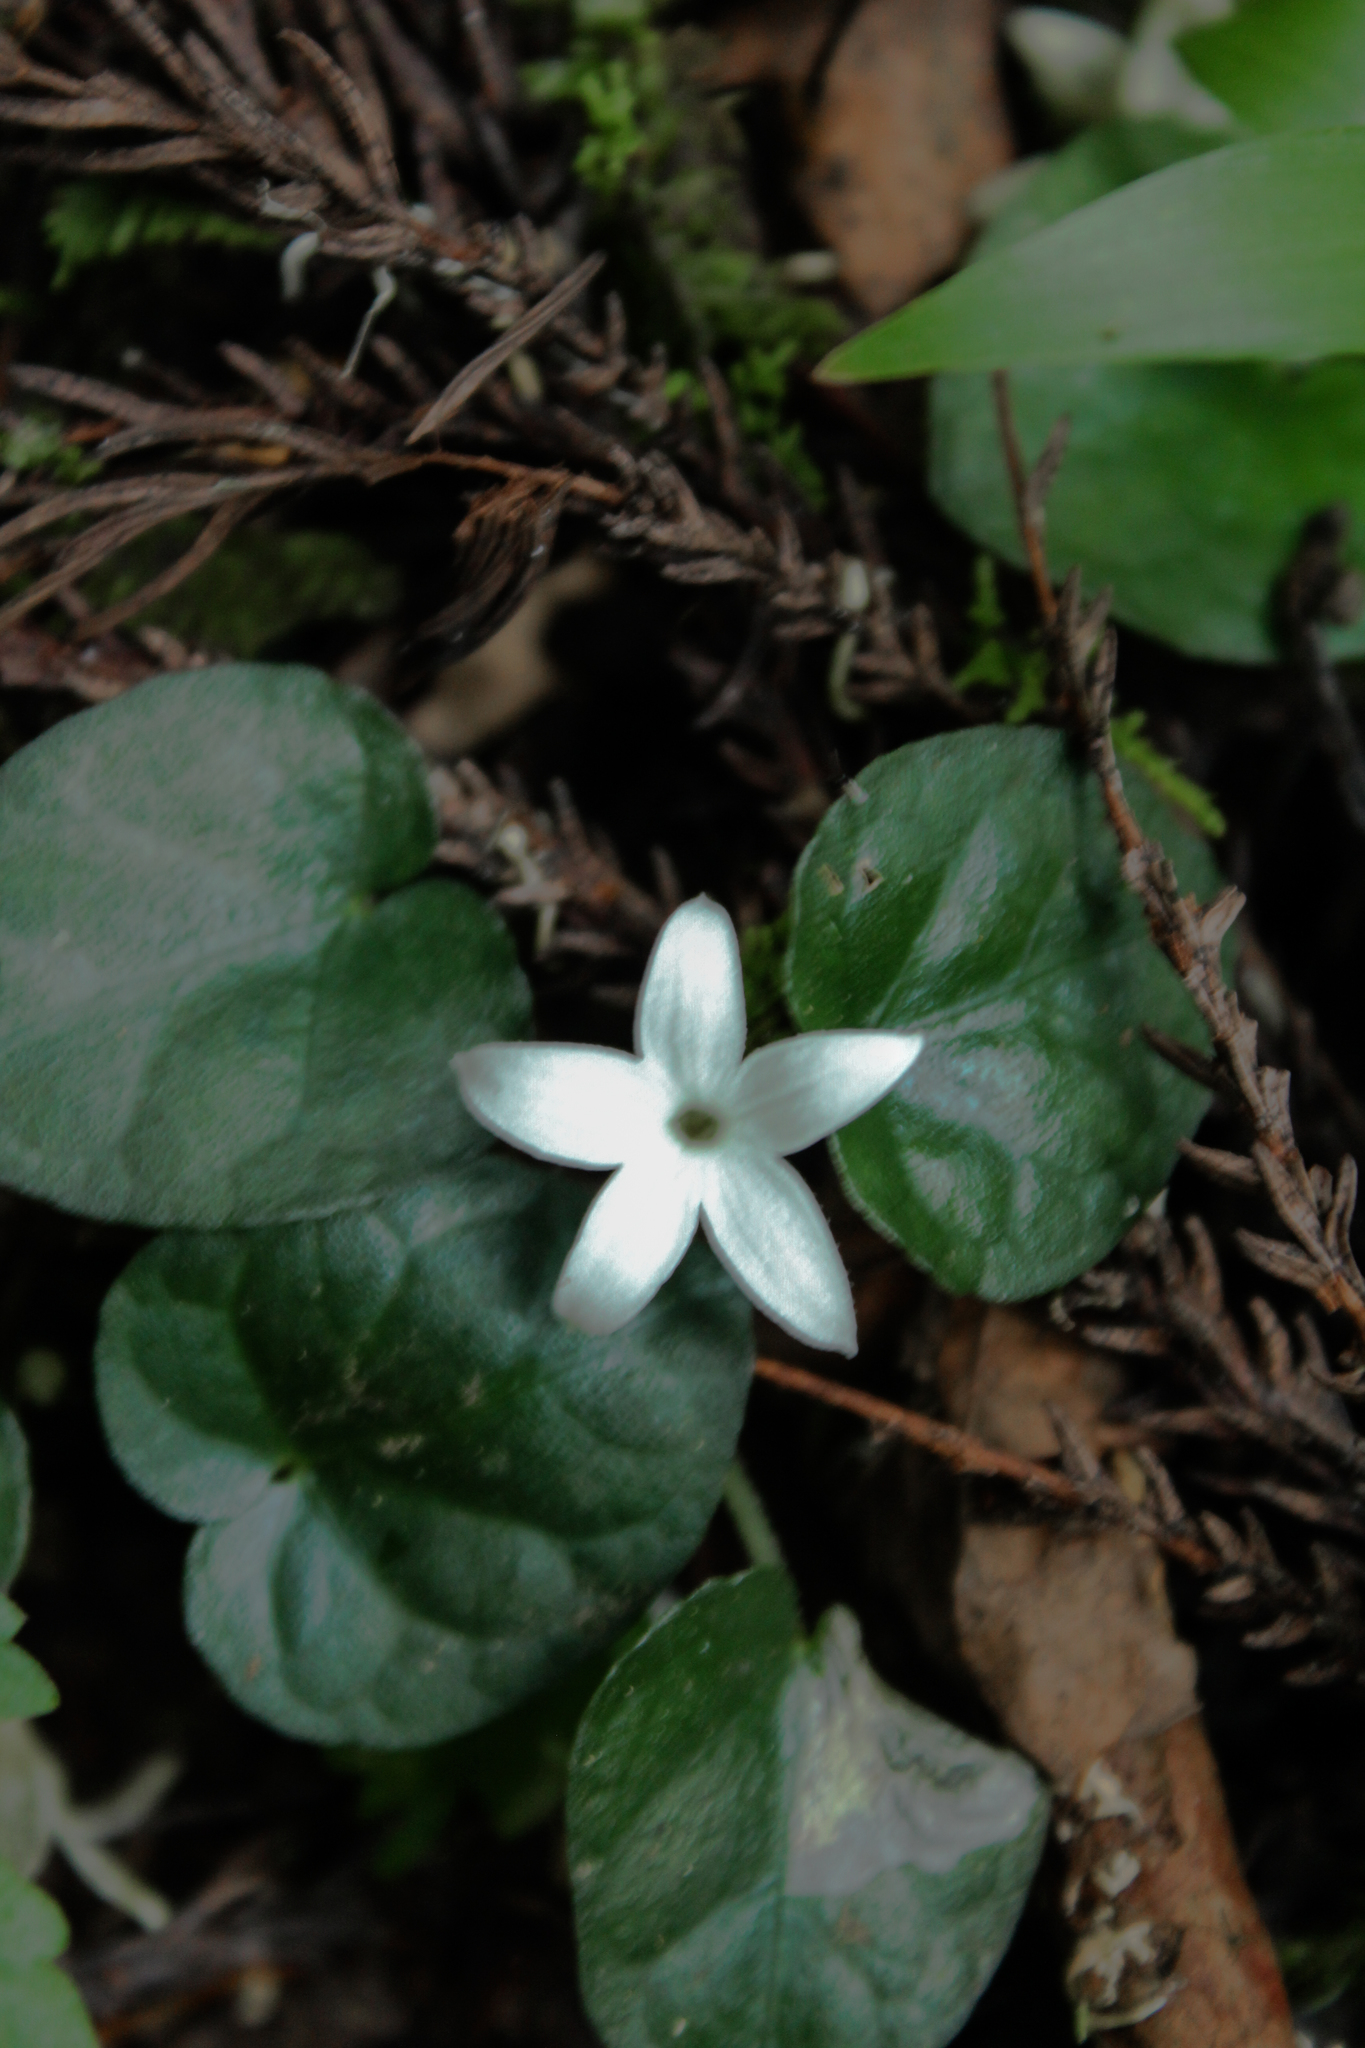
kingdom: Plantae
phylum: Tracheophyta
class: Magnoliopsida
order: Gentianales
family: Rubiaceae
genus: Geophila
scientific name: Geophila herbacea
